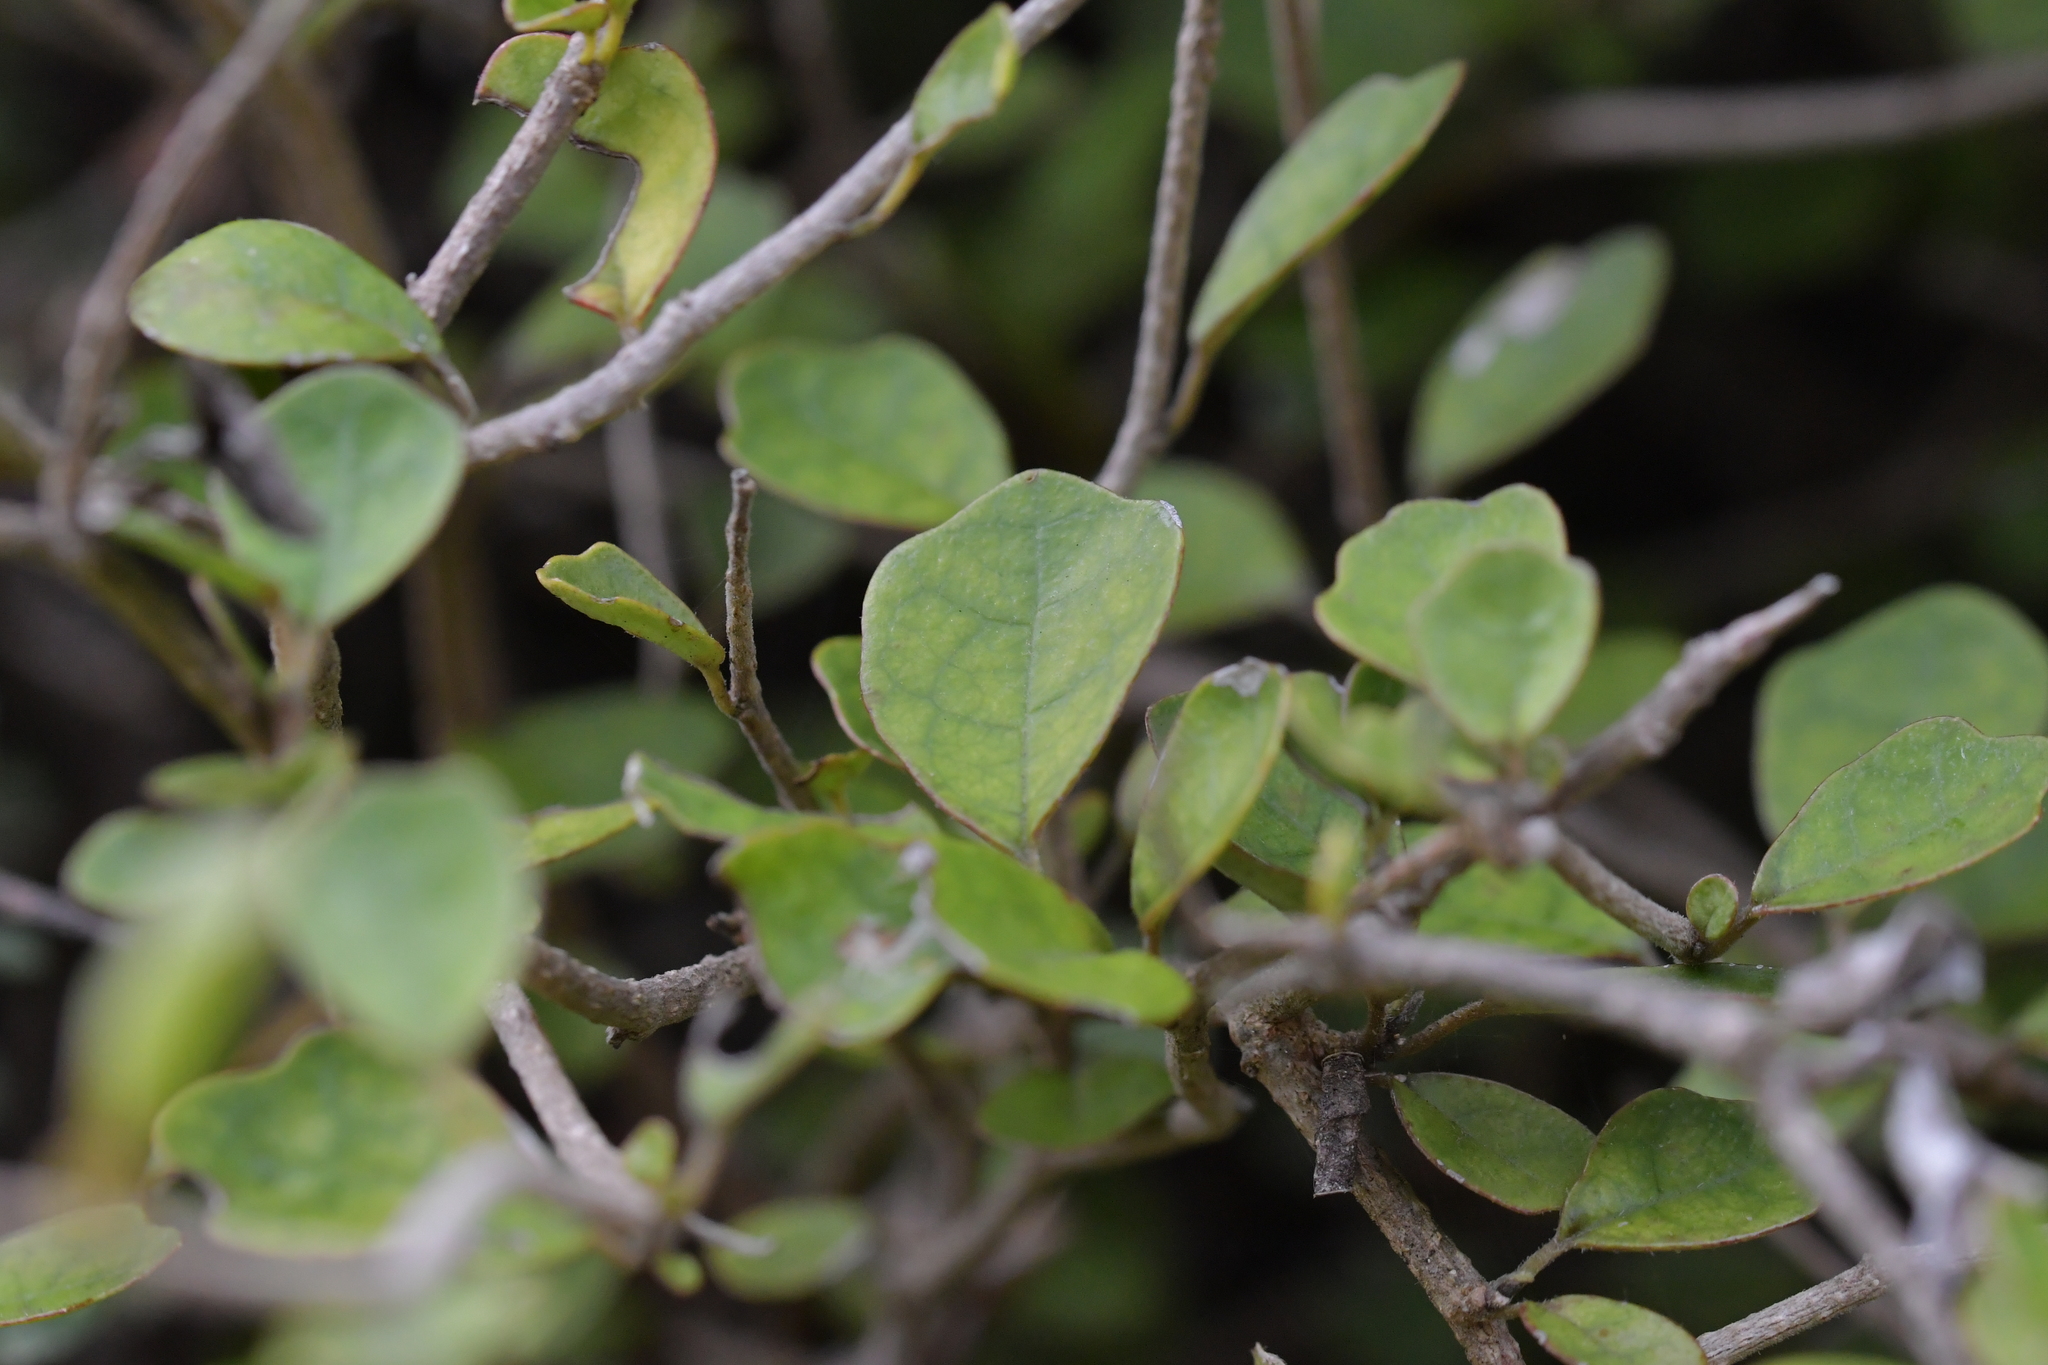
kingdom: Plantae
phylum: Tracheophyta
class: Magnoliopsida
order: Apiales
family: Pennantiaceae
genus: Pennantia
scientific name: Pennantia corymbosa
